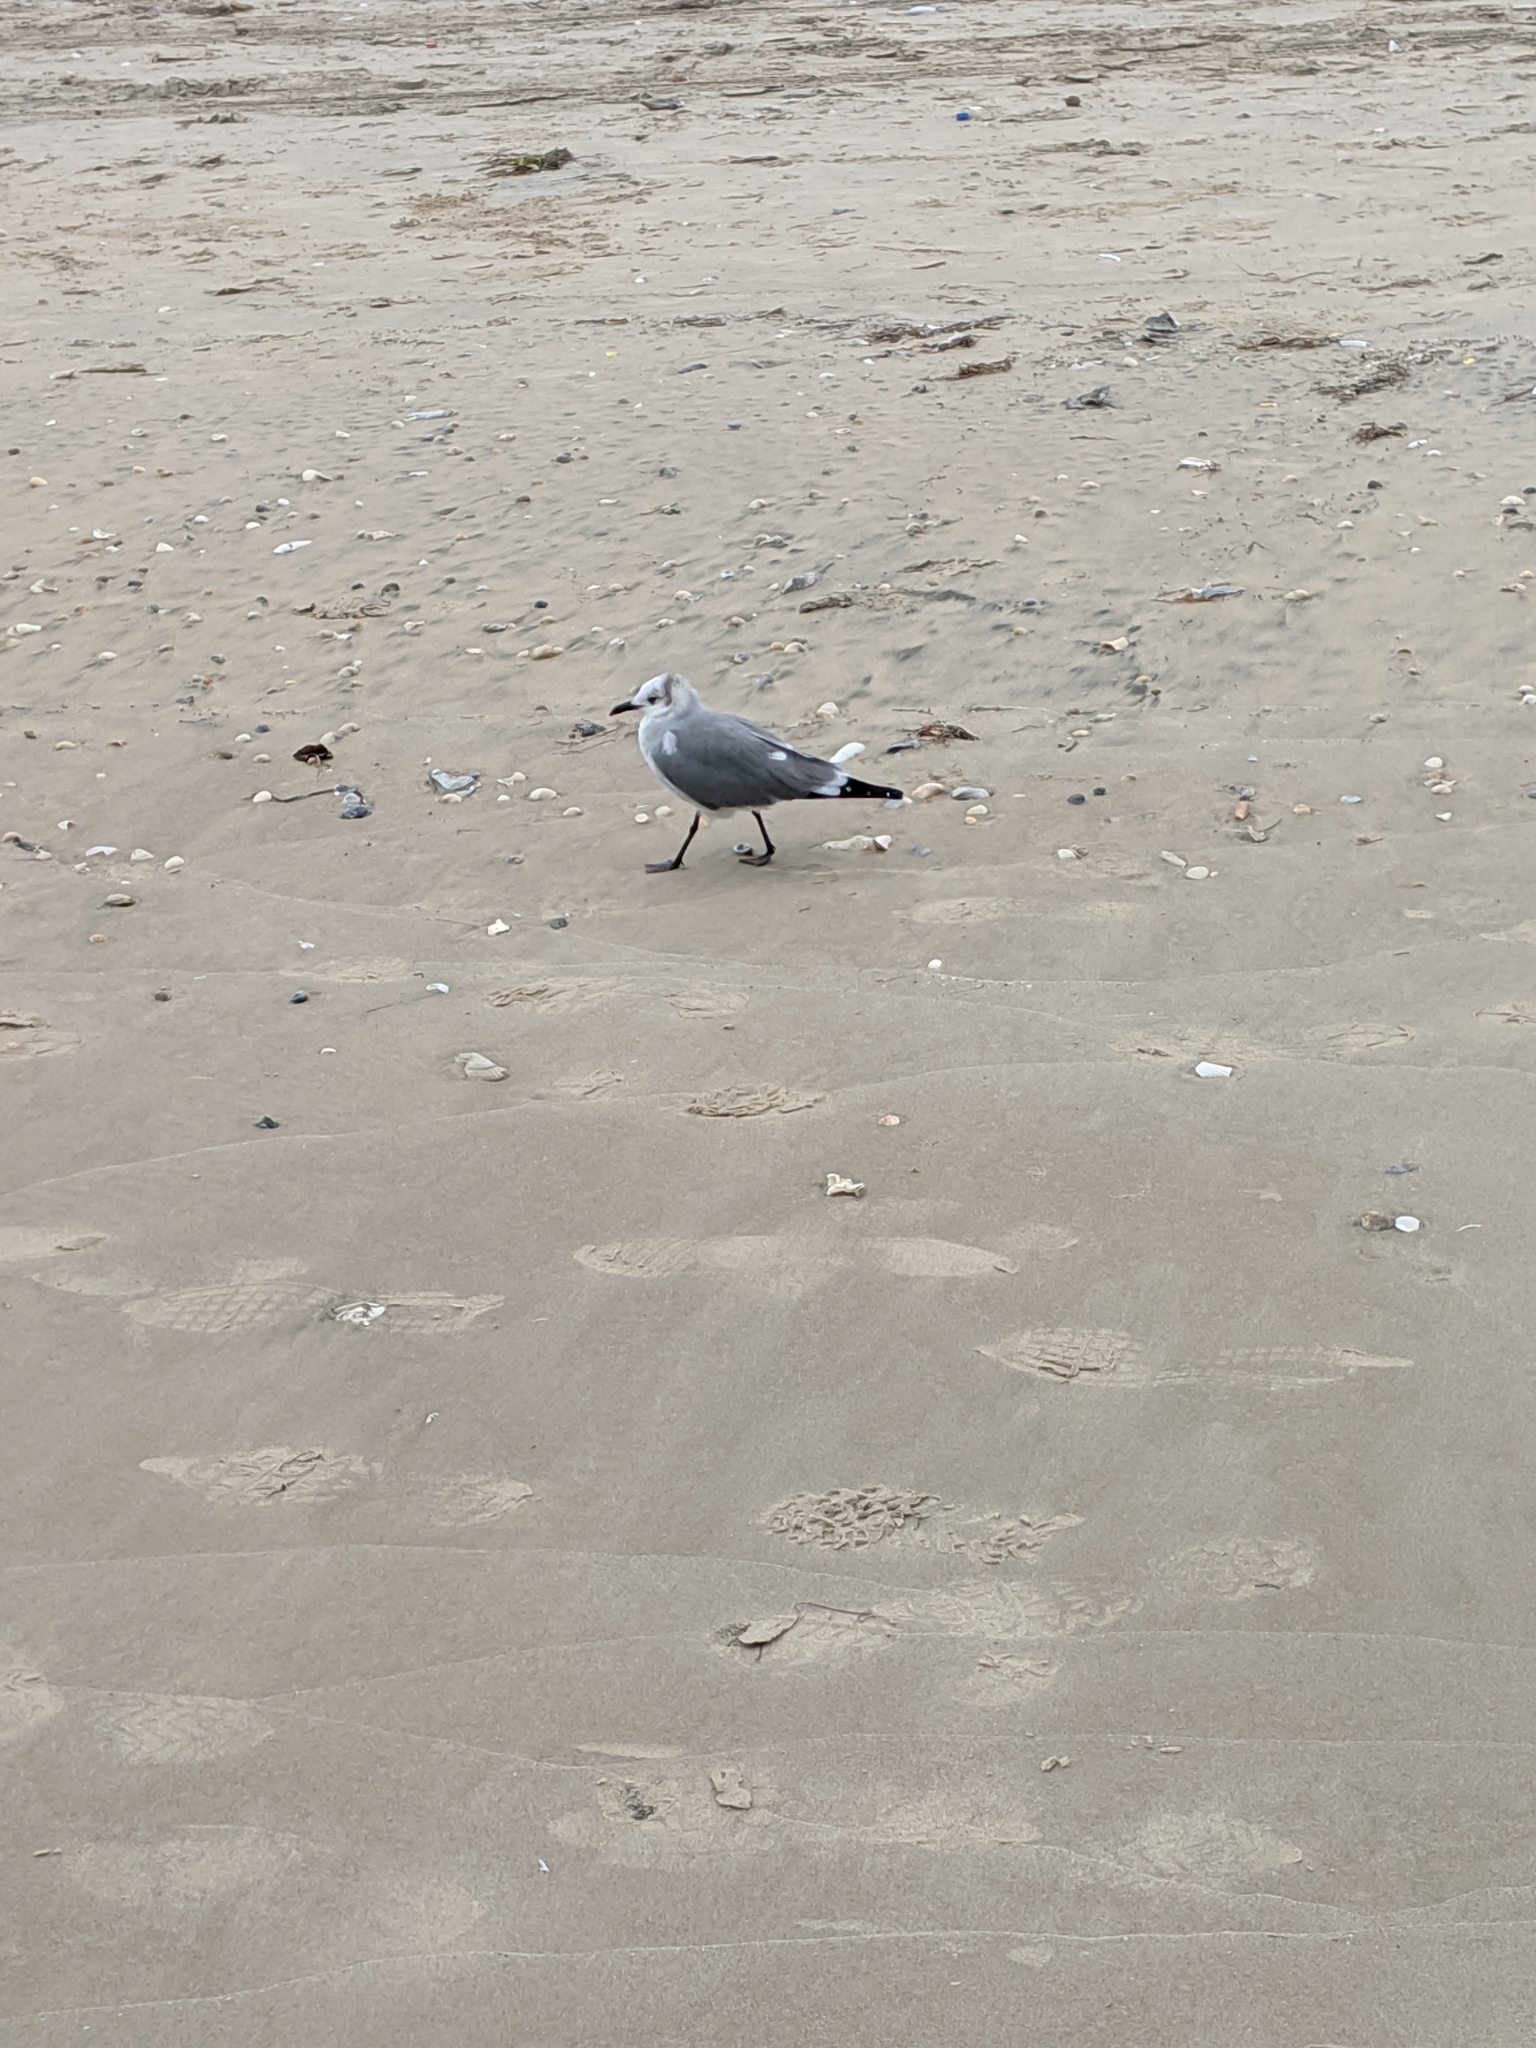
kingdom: Animalia
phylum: Chordata
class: Aves
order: Charadriiformes
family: Laridae
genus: Leucophaeus
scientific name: Leucophaeus atricilla
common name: Laughing gull
